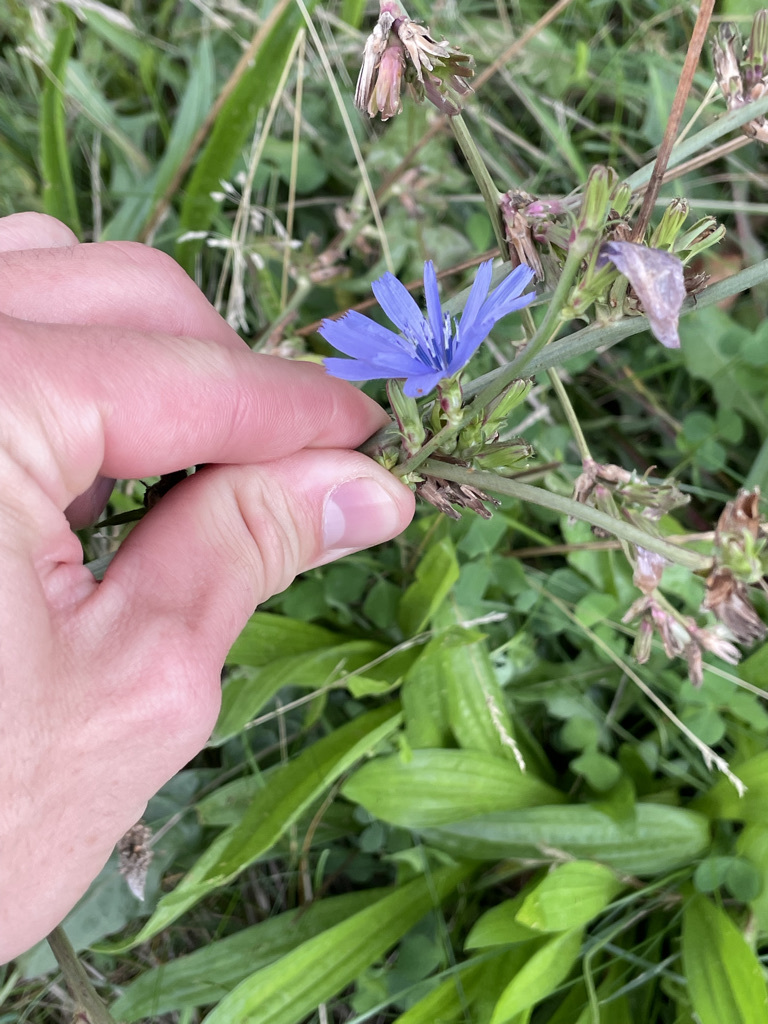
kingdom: Plantae
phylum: Tracheophyta
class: Magnoliopsida
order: Asterales
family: Asteraceae
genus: Cichorium
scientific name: Cichorium intybus
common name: Chicory
